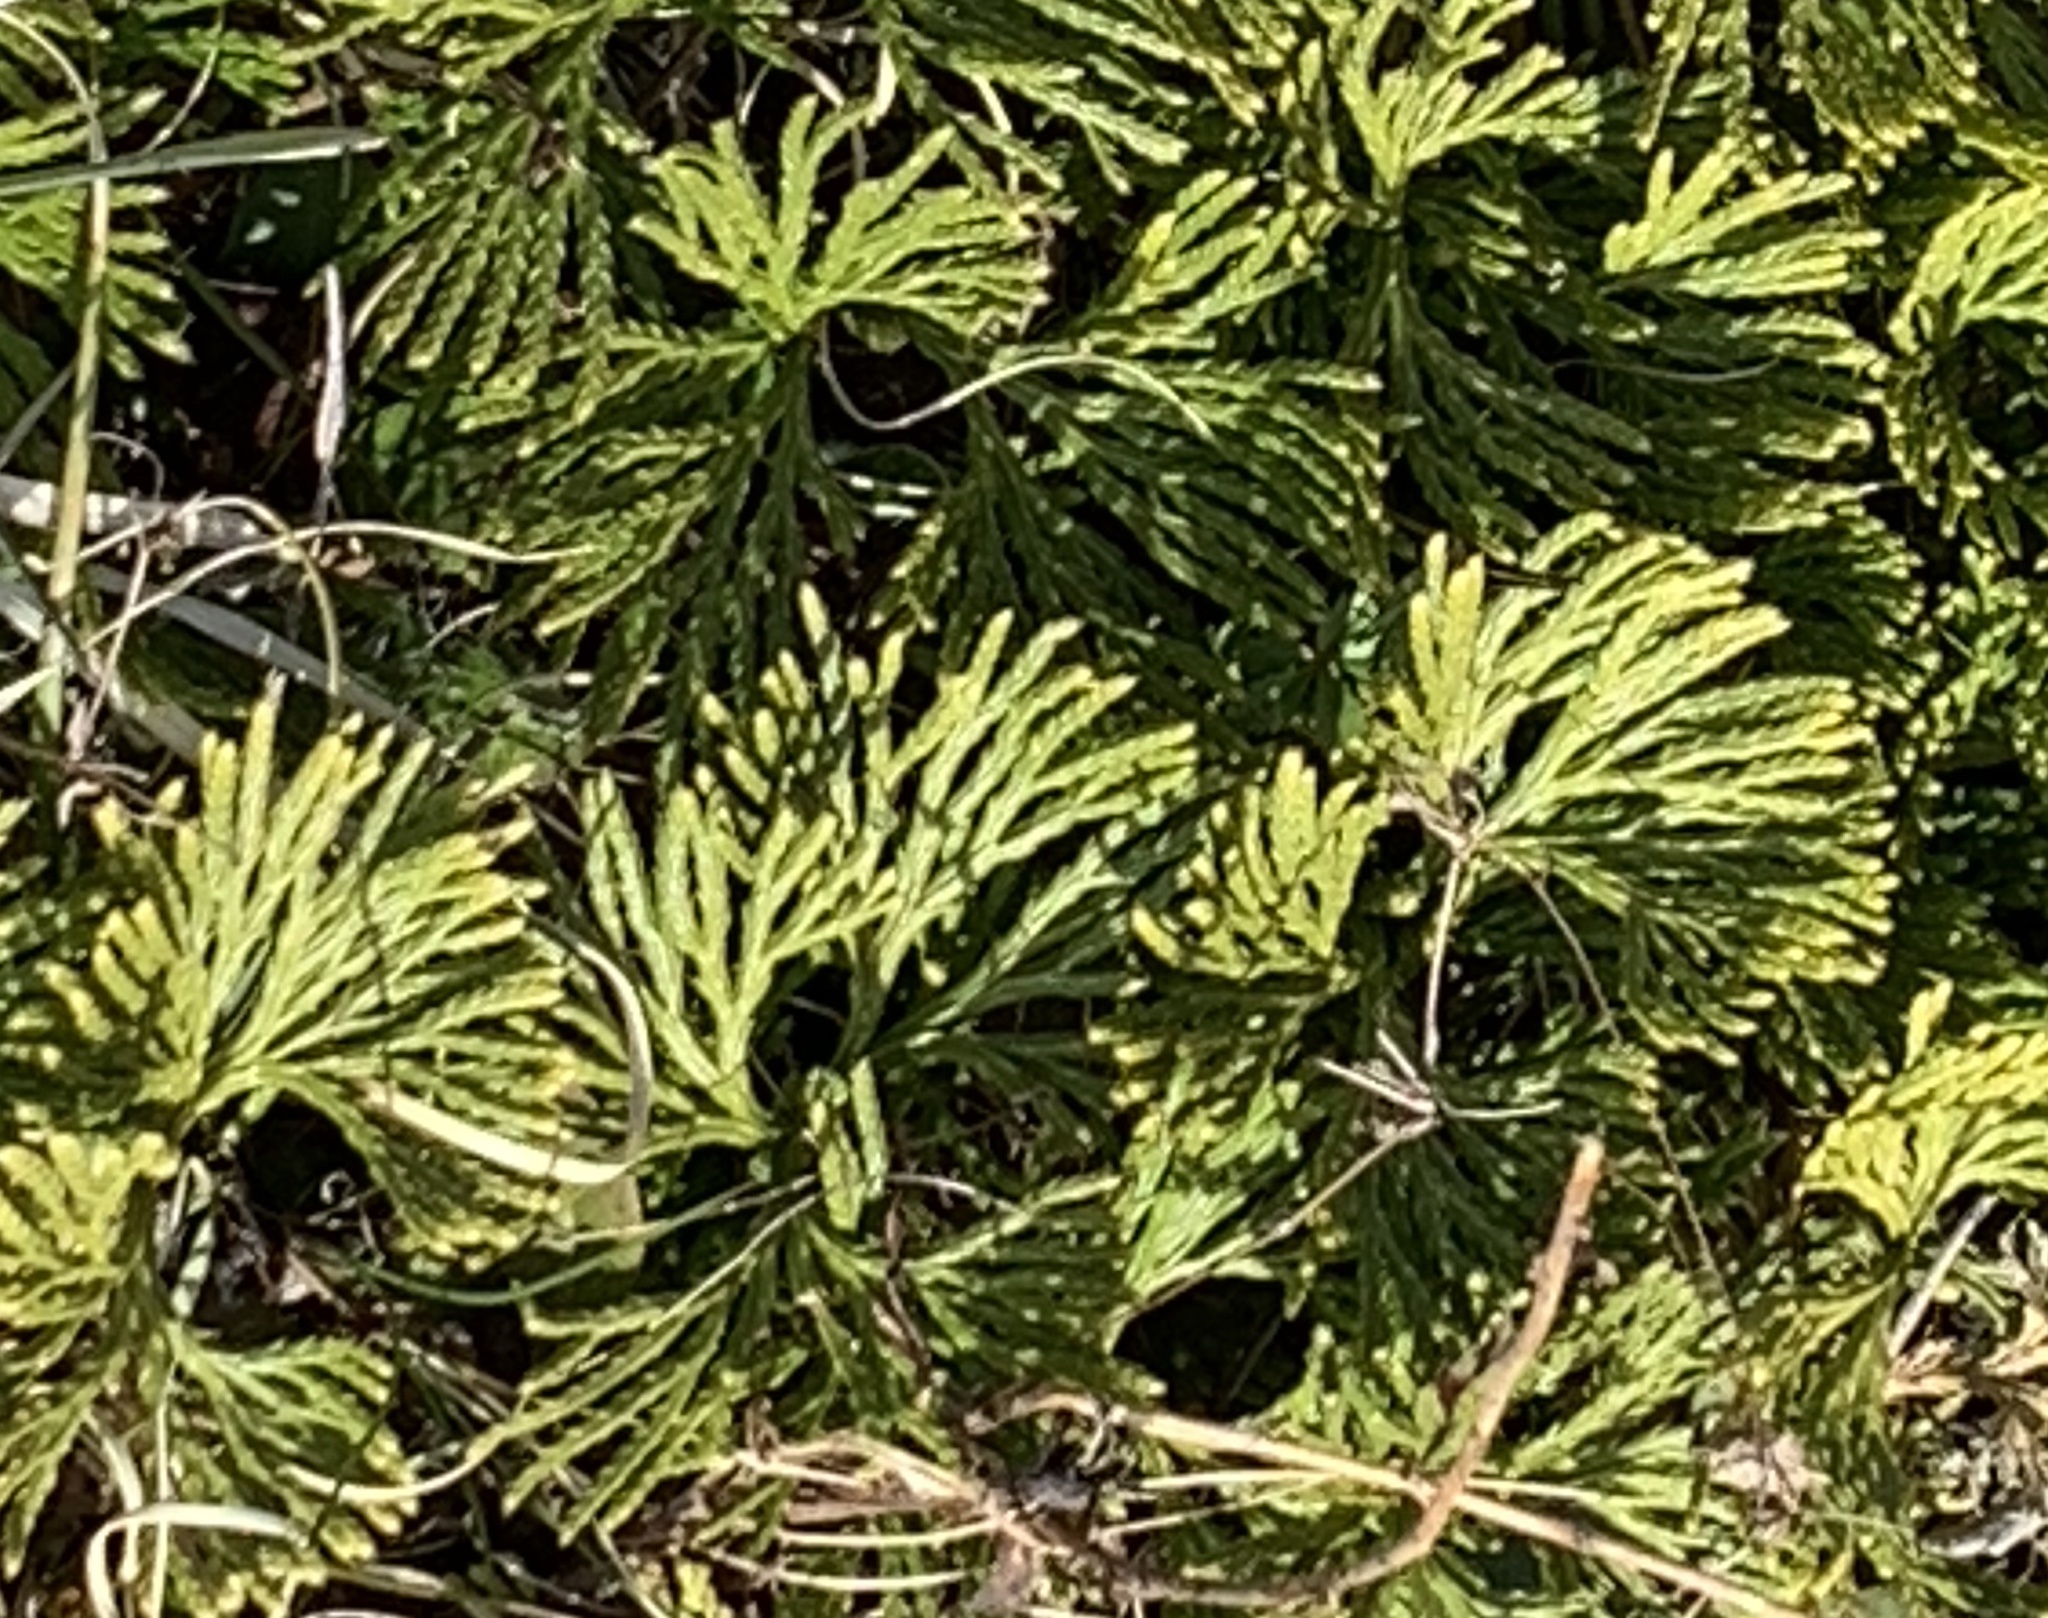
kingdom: Plantae
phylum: Tracheophyta
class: Lycopodiopsida
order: Lycopodiales
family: Lycopodiaceae
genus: Diphasiastrum
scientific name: Diphasiastrum digitatum
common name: Southern running-pine
